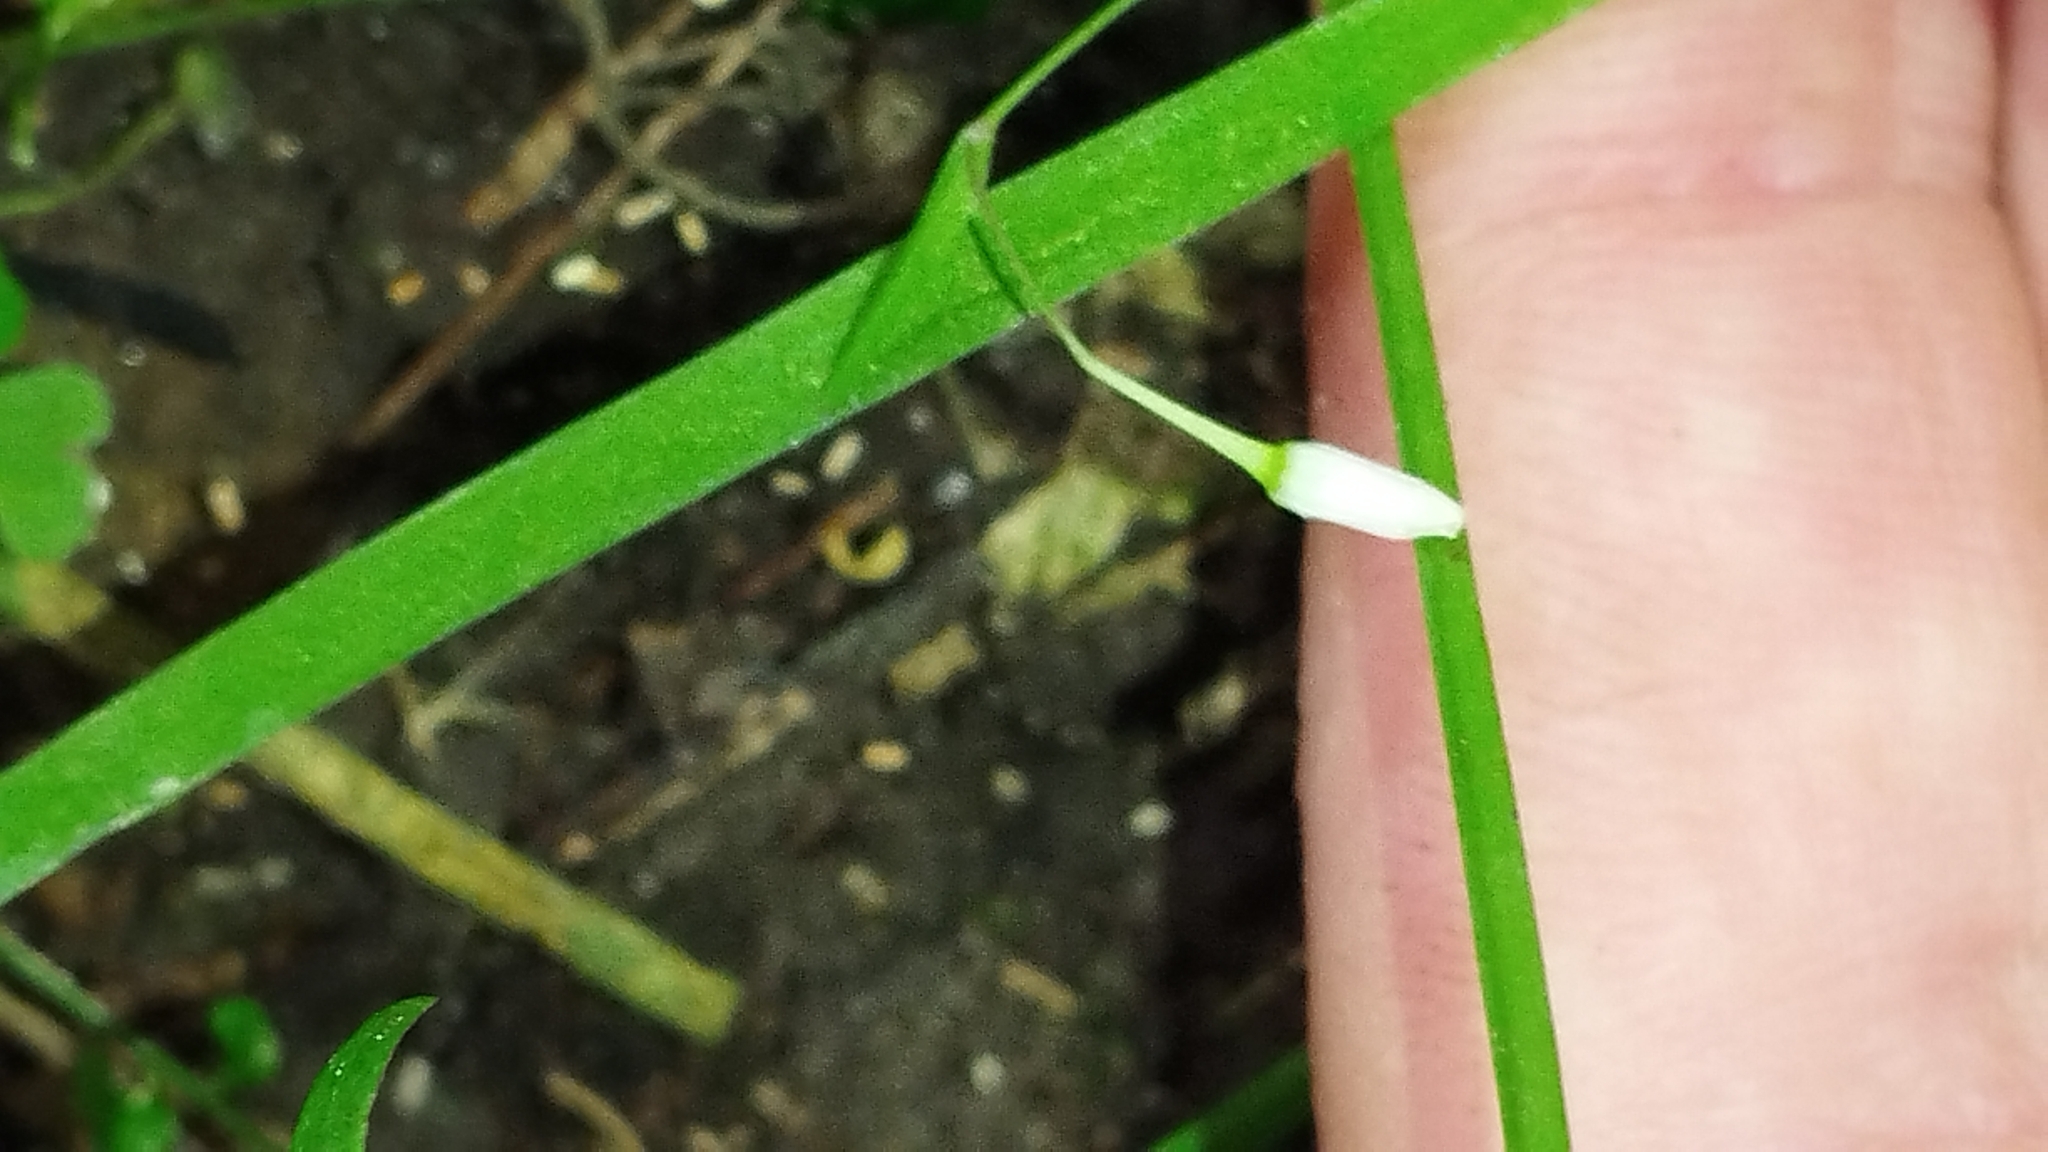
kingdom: Plantae
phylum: Tracheophyta
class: Liliopsida
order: Asparagales
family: Asparagaceae
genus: Arthropodium
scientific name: Arthropodium candidum
